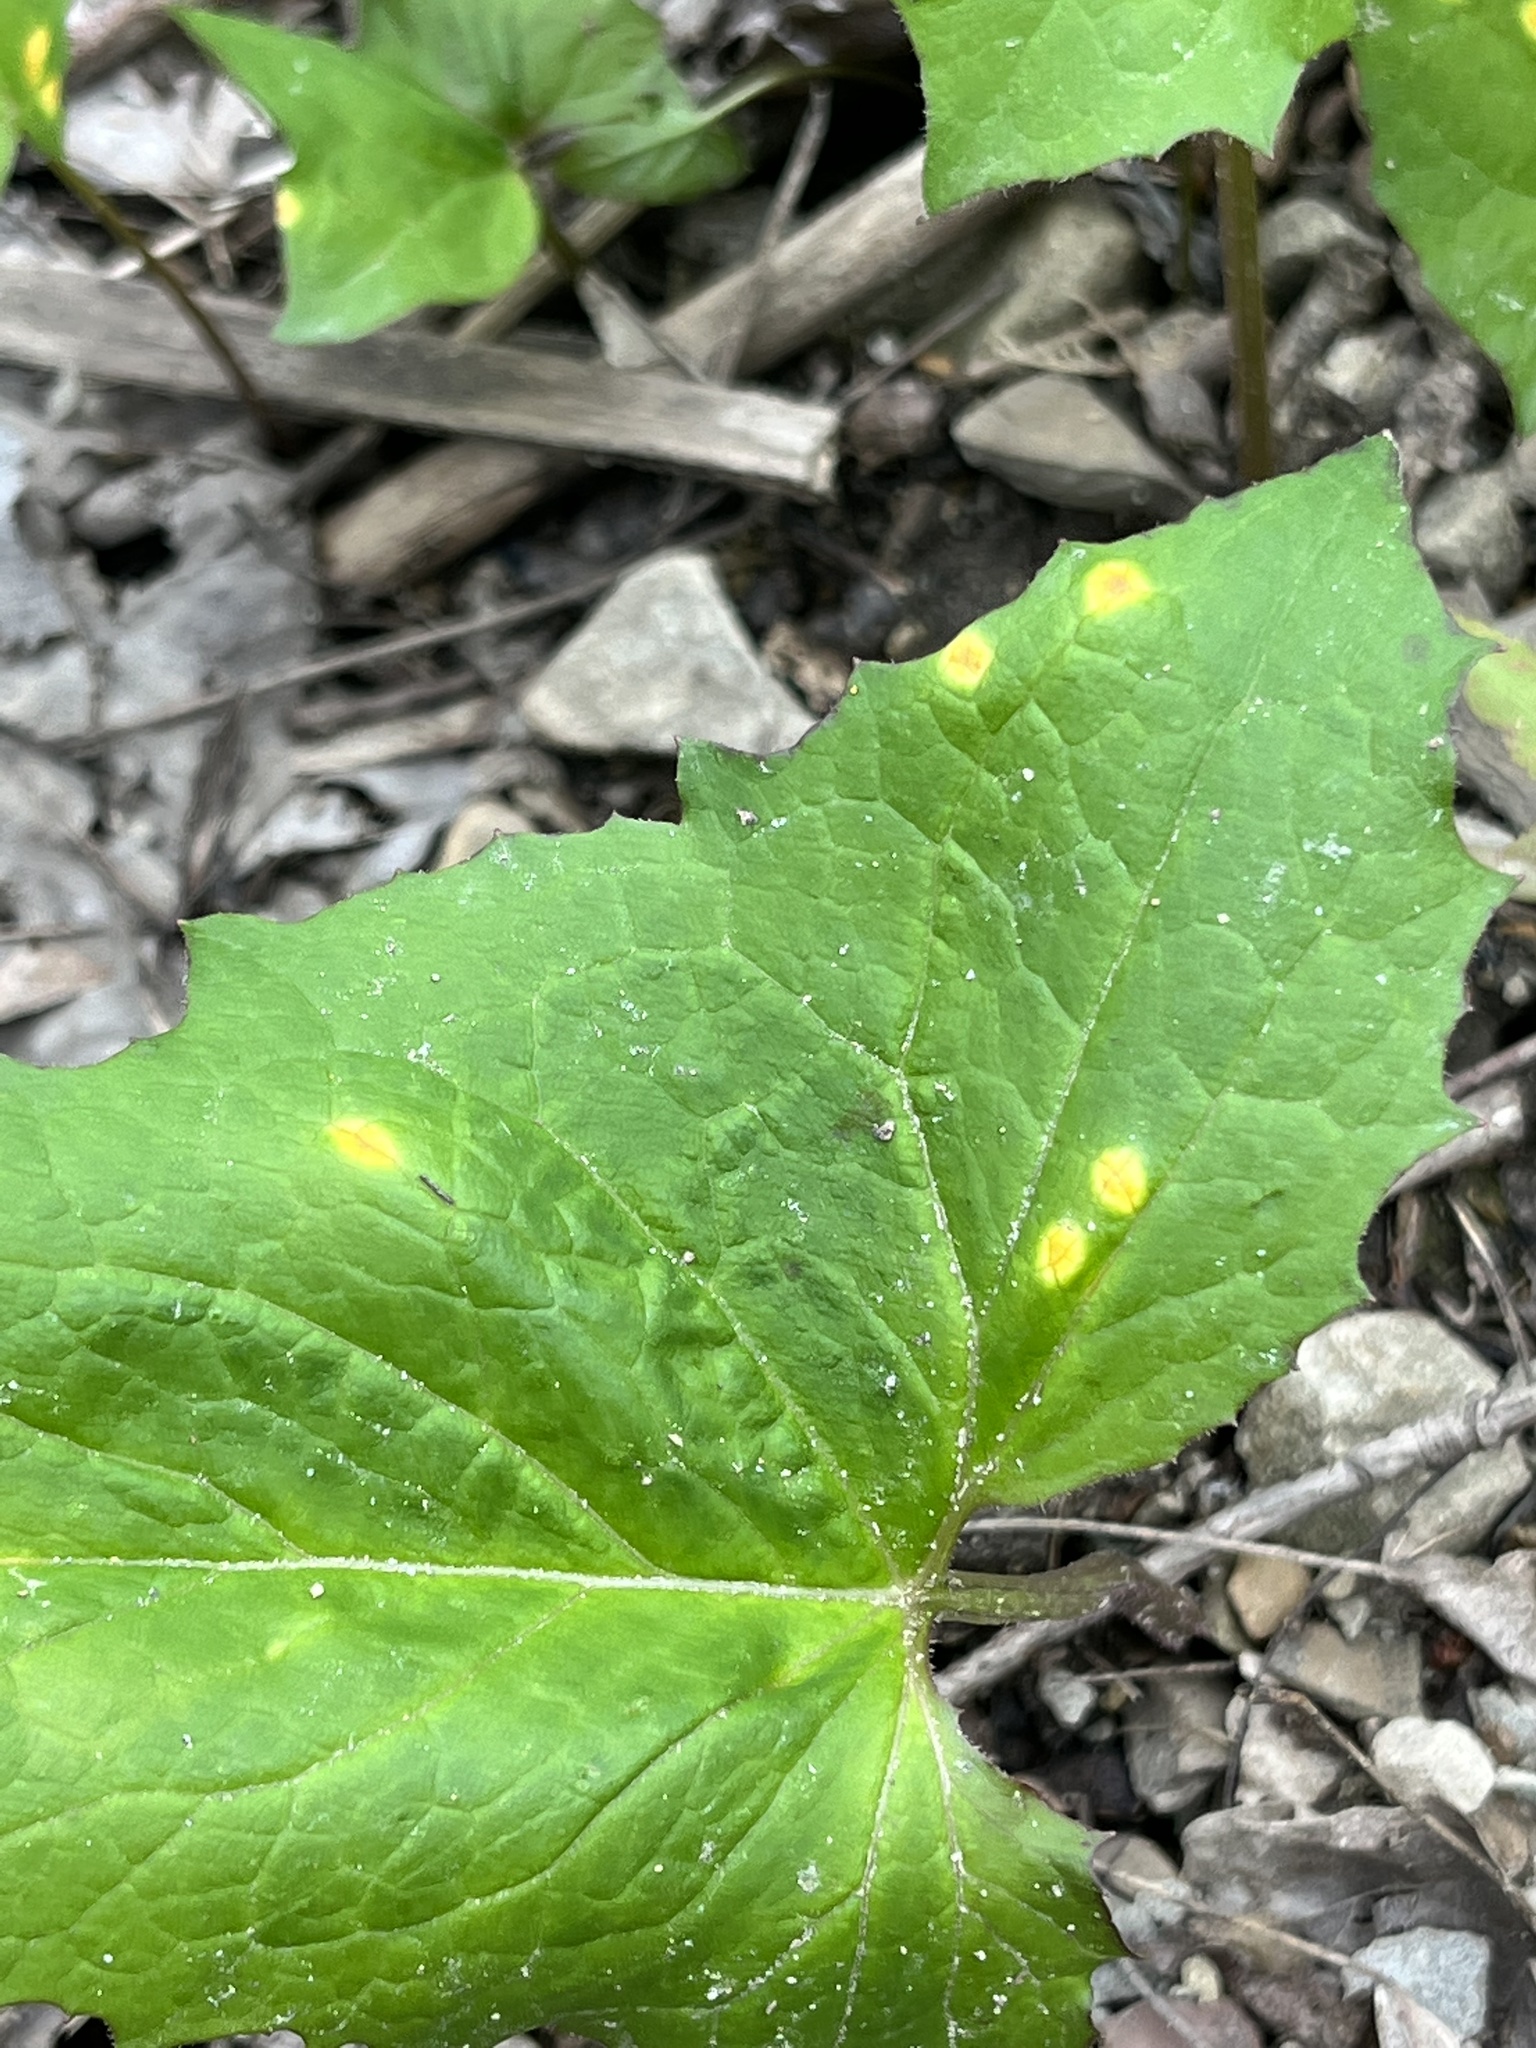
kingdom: Fungi
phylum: Basidiomycota
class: Pucciniomycetes
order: Pucciniales
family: Pucciniaceae
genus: Puccinia
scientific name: Puccinia orbicula
